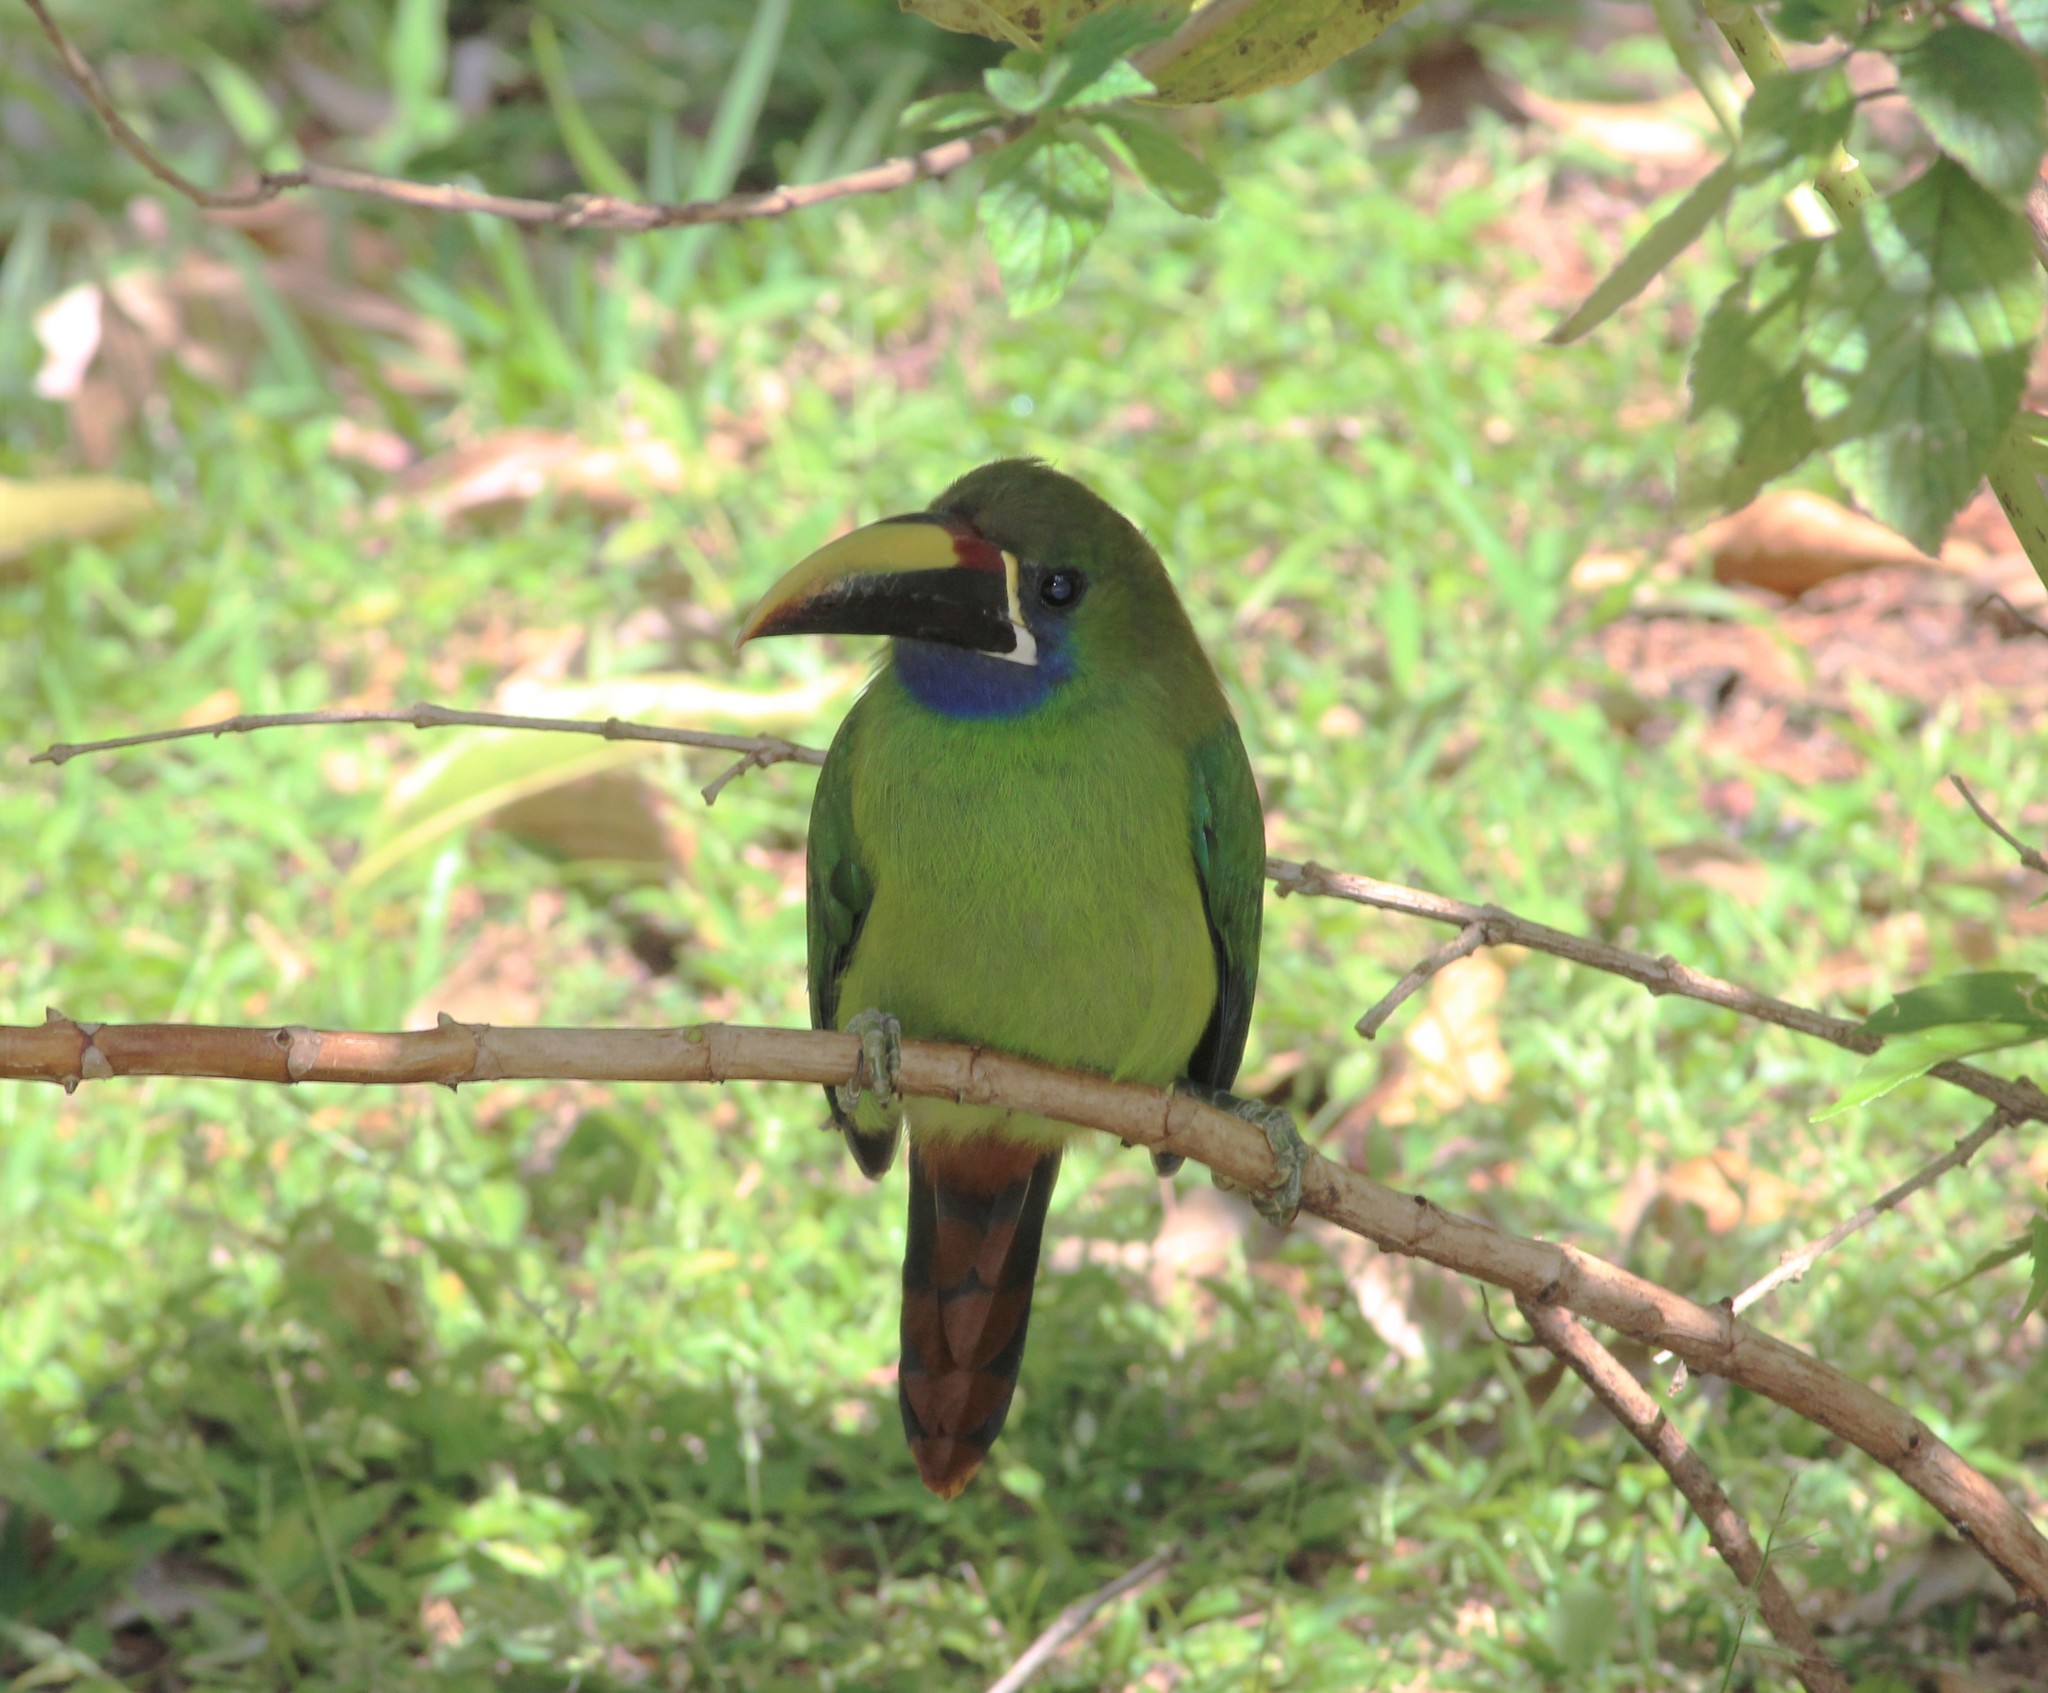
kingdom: Animalia
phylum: Chordata
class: Aves
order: Piciformes
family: Ramphastidae
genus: Aulacorhynchus
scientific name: Aulacorhynchus prasinus
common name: Emerald toucanet
